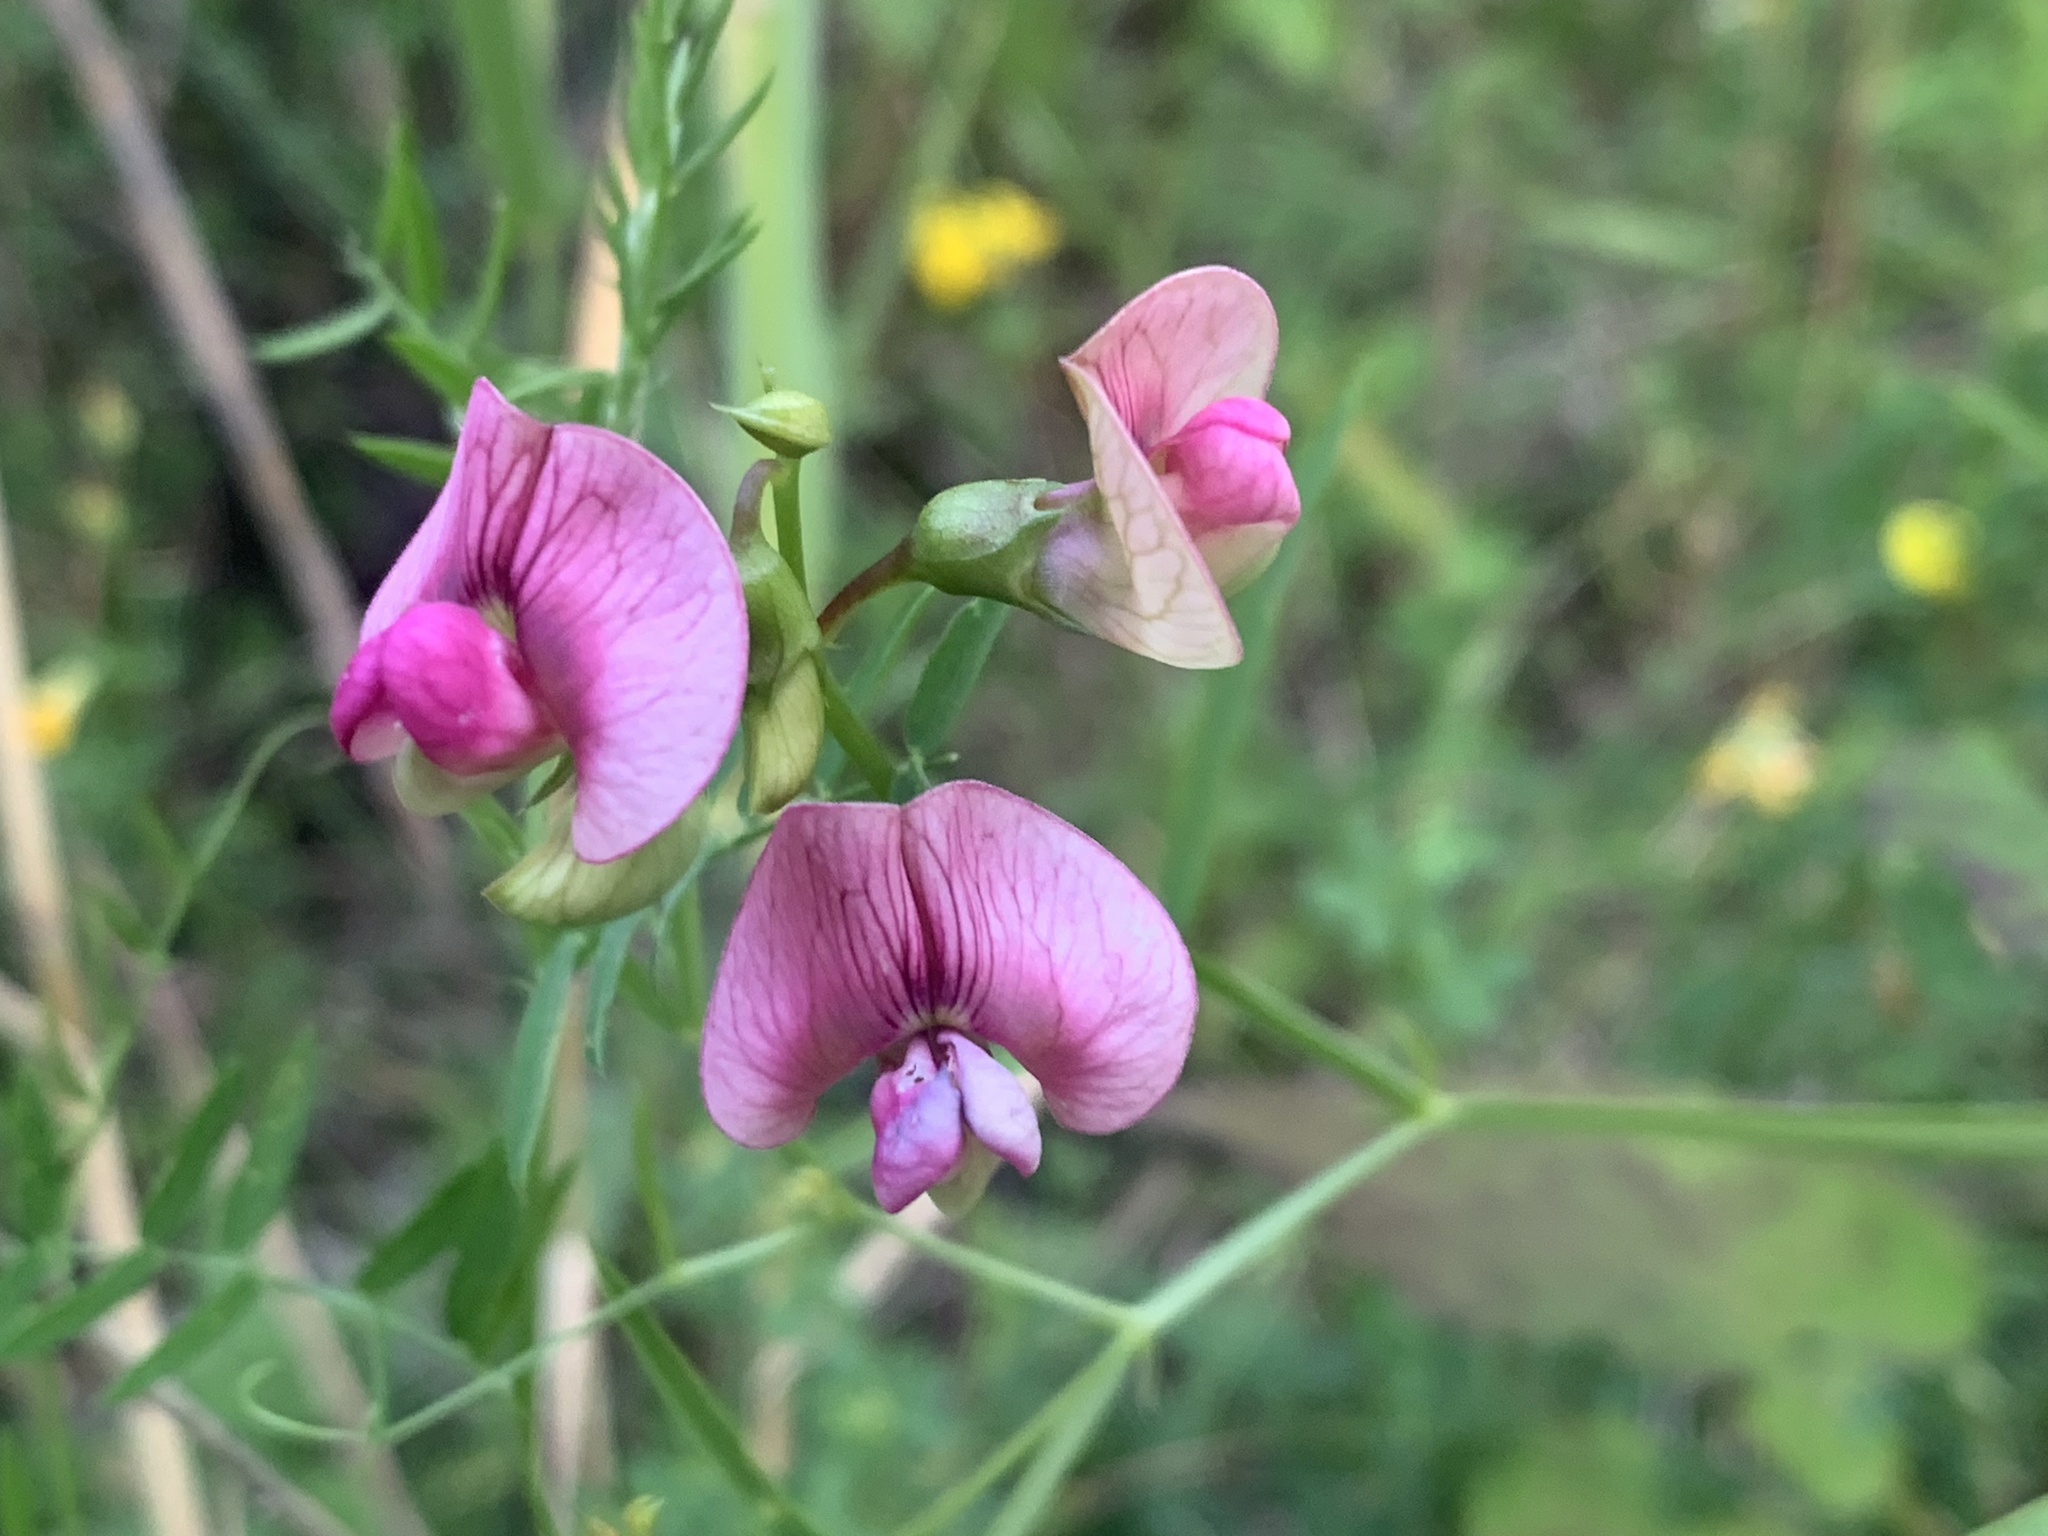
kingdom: Plantae
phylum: Tracheophyta
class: Magnoliopsida
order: Fabales
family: Fabaceae
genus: Lathyrus
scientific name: Lathyrus sylvestris
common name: Flat pea
